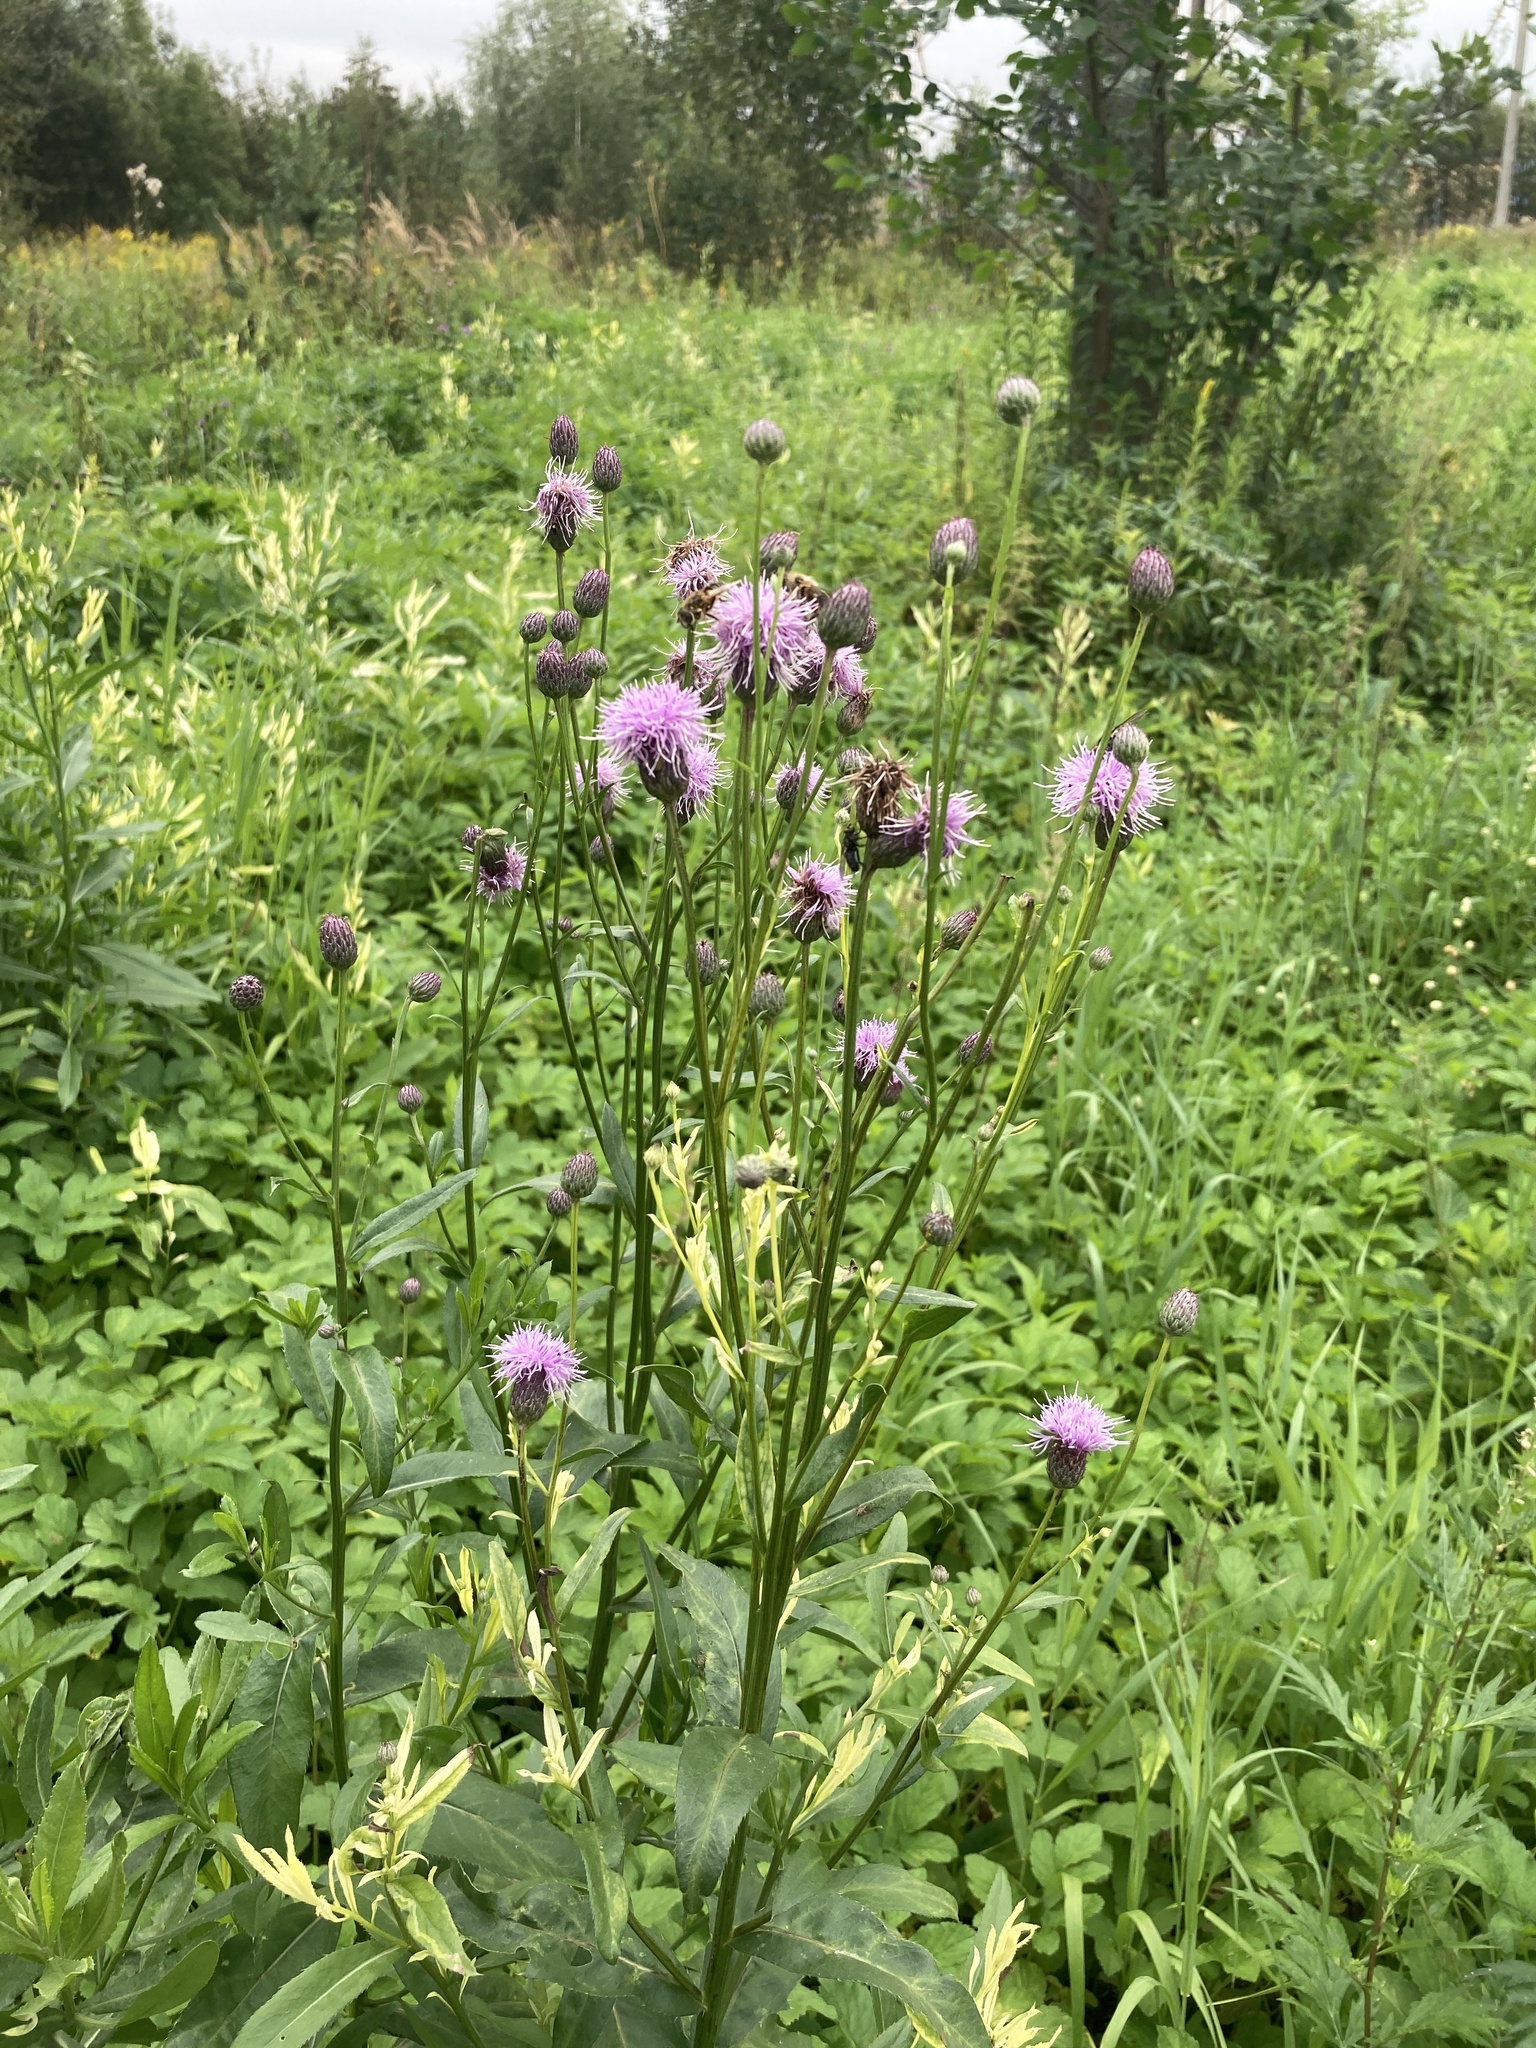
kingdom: Plantae
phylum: Tracheophyta
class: Magnoliopsida
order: Asterales
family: Asteraceae
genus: Cirsium
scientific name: Cirsium arvense
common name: Creeping thistle
